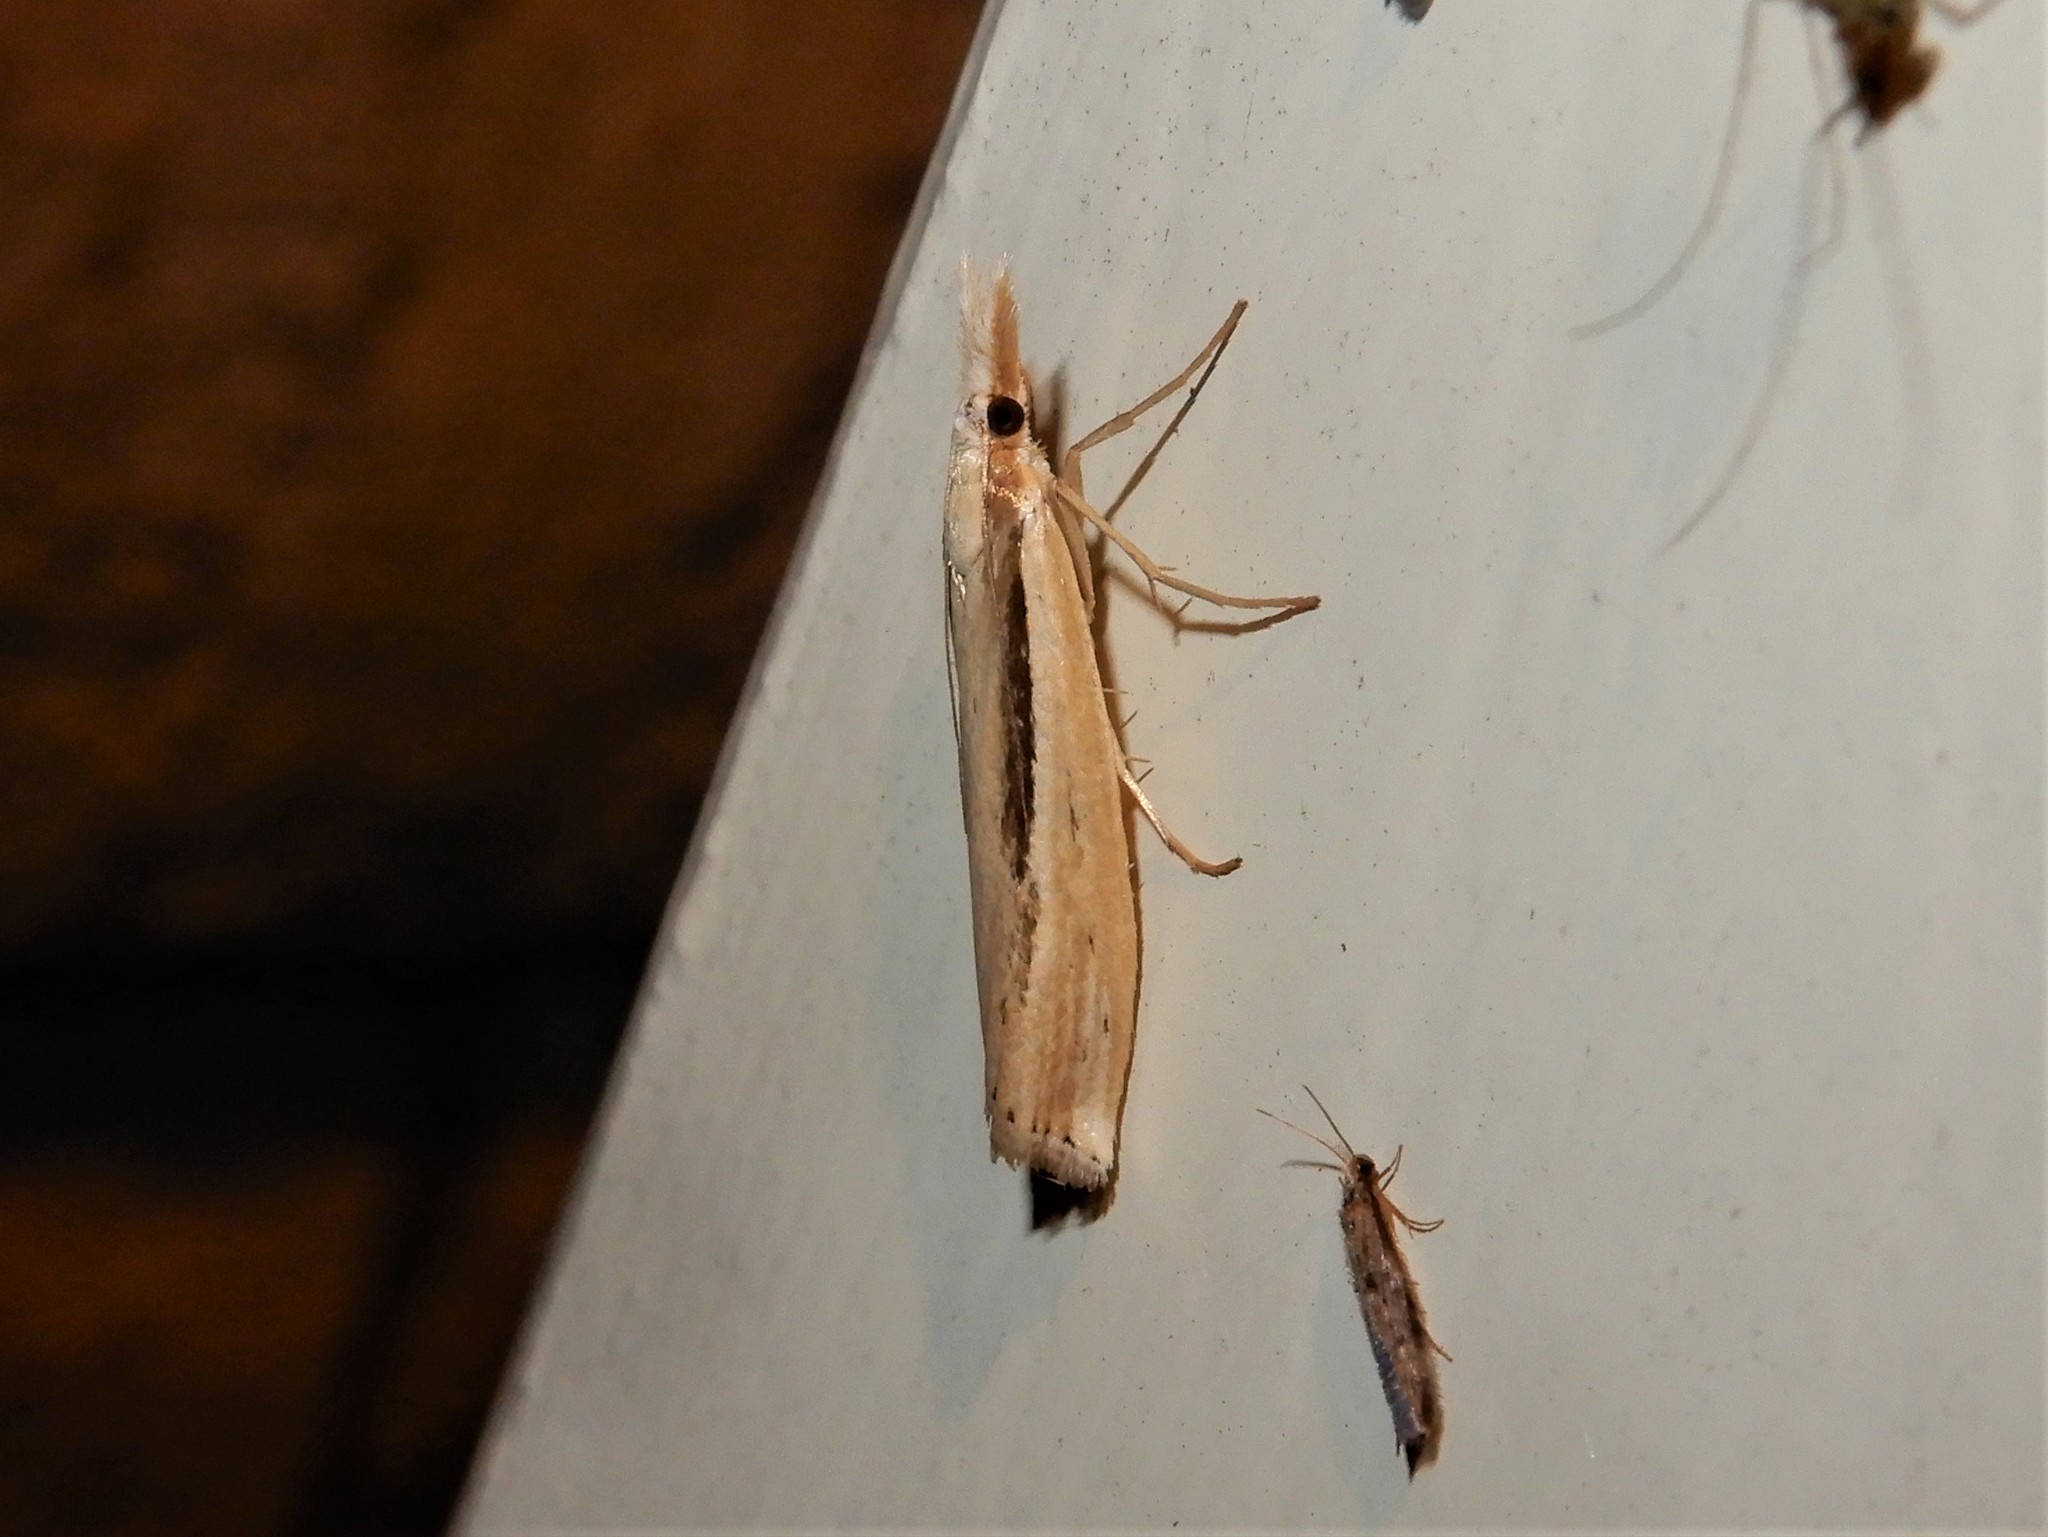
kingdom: Animalia
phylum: Arthropoda
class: Insecta
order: Lepidoptera
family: Crambidae
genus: Orocrambus
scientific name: Orocrambus ramosellus
